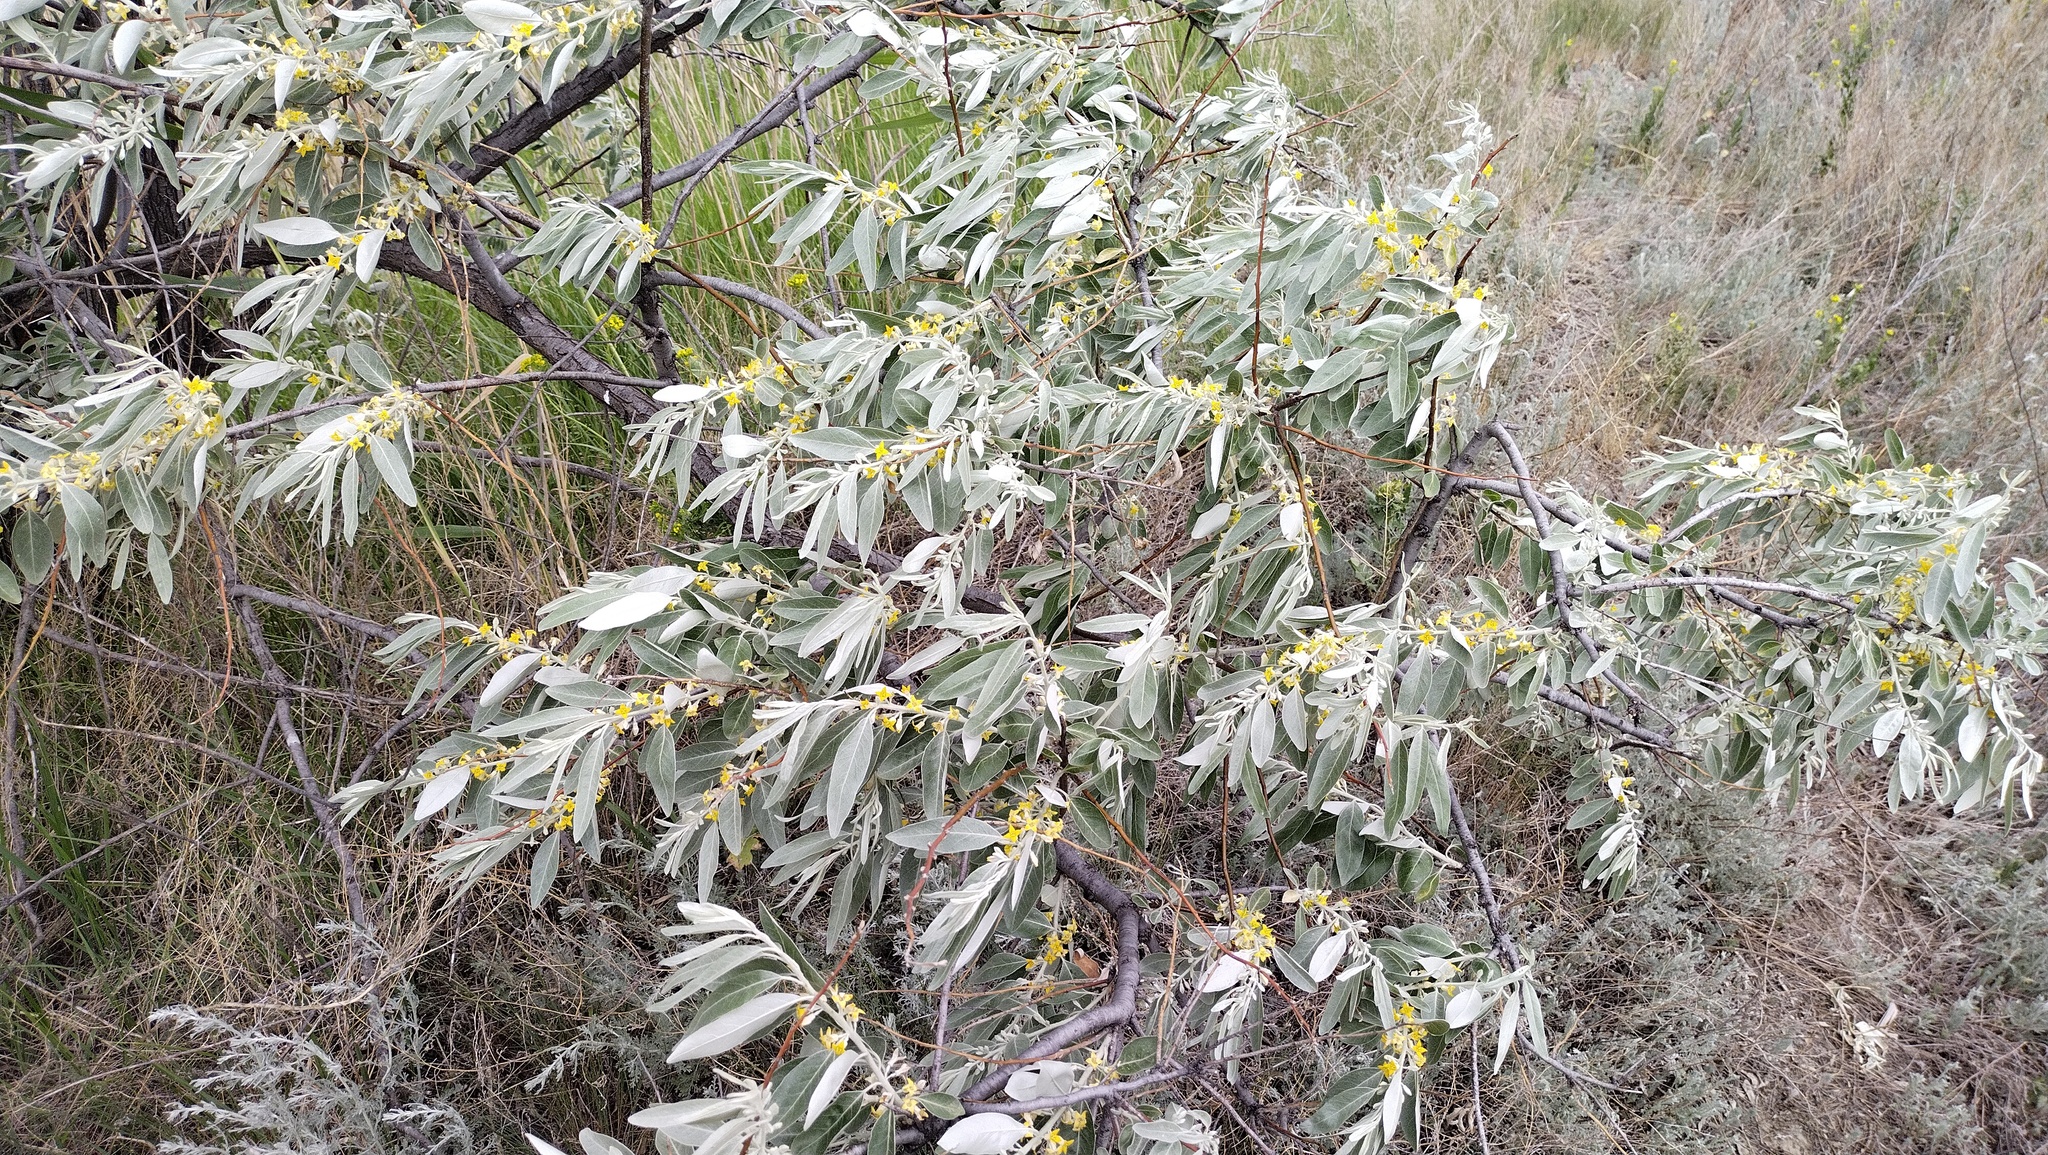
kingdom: Plantae
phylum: Tracheophyta
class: Magnoliopsida
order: Rosales
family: Elaeagnaceae
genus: Elaeagnus
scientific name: Elaeagnus angustifolia
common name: Russian olive
